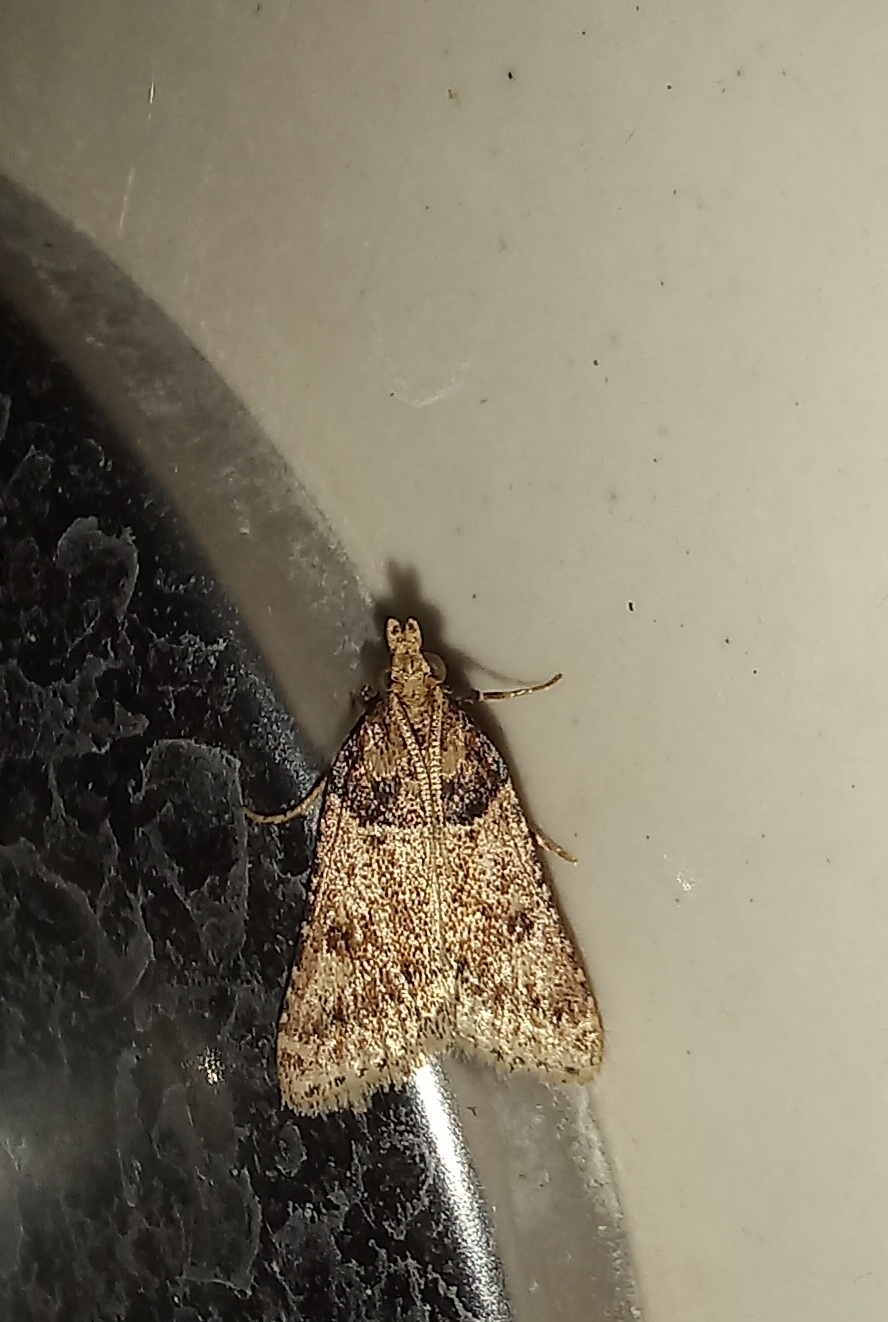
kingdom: Animalia
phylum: Arthropoda
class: Insecta
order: Lepidoptera
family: Pyralidae
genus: Philotis
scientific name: Philotis basalis
